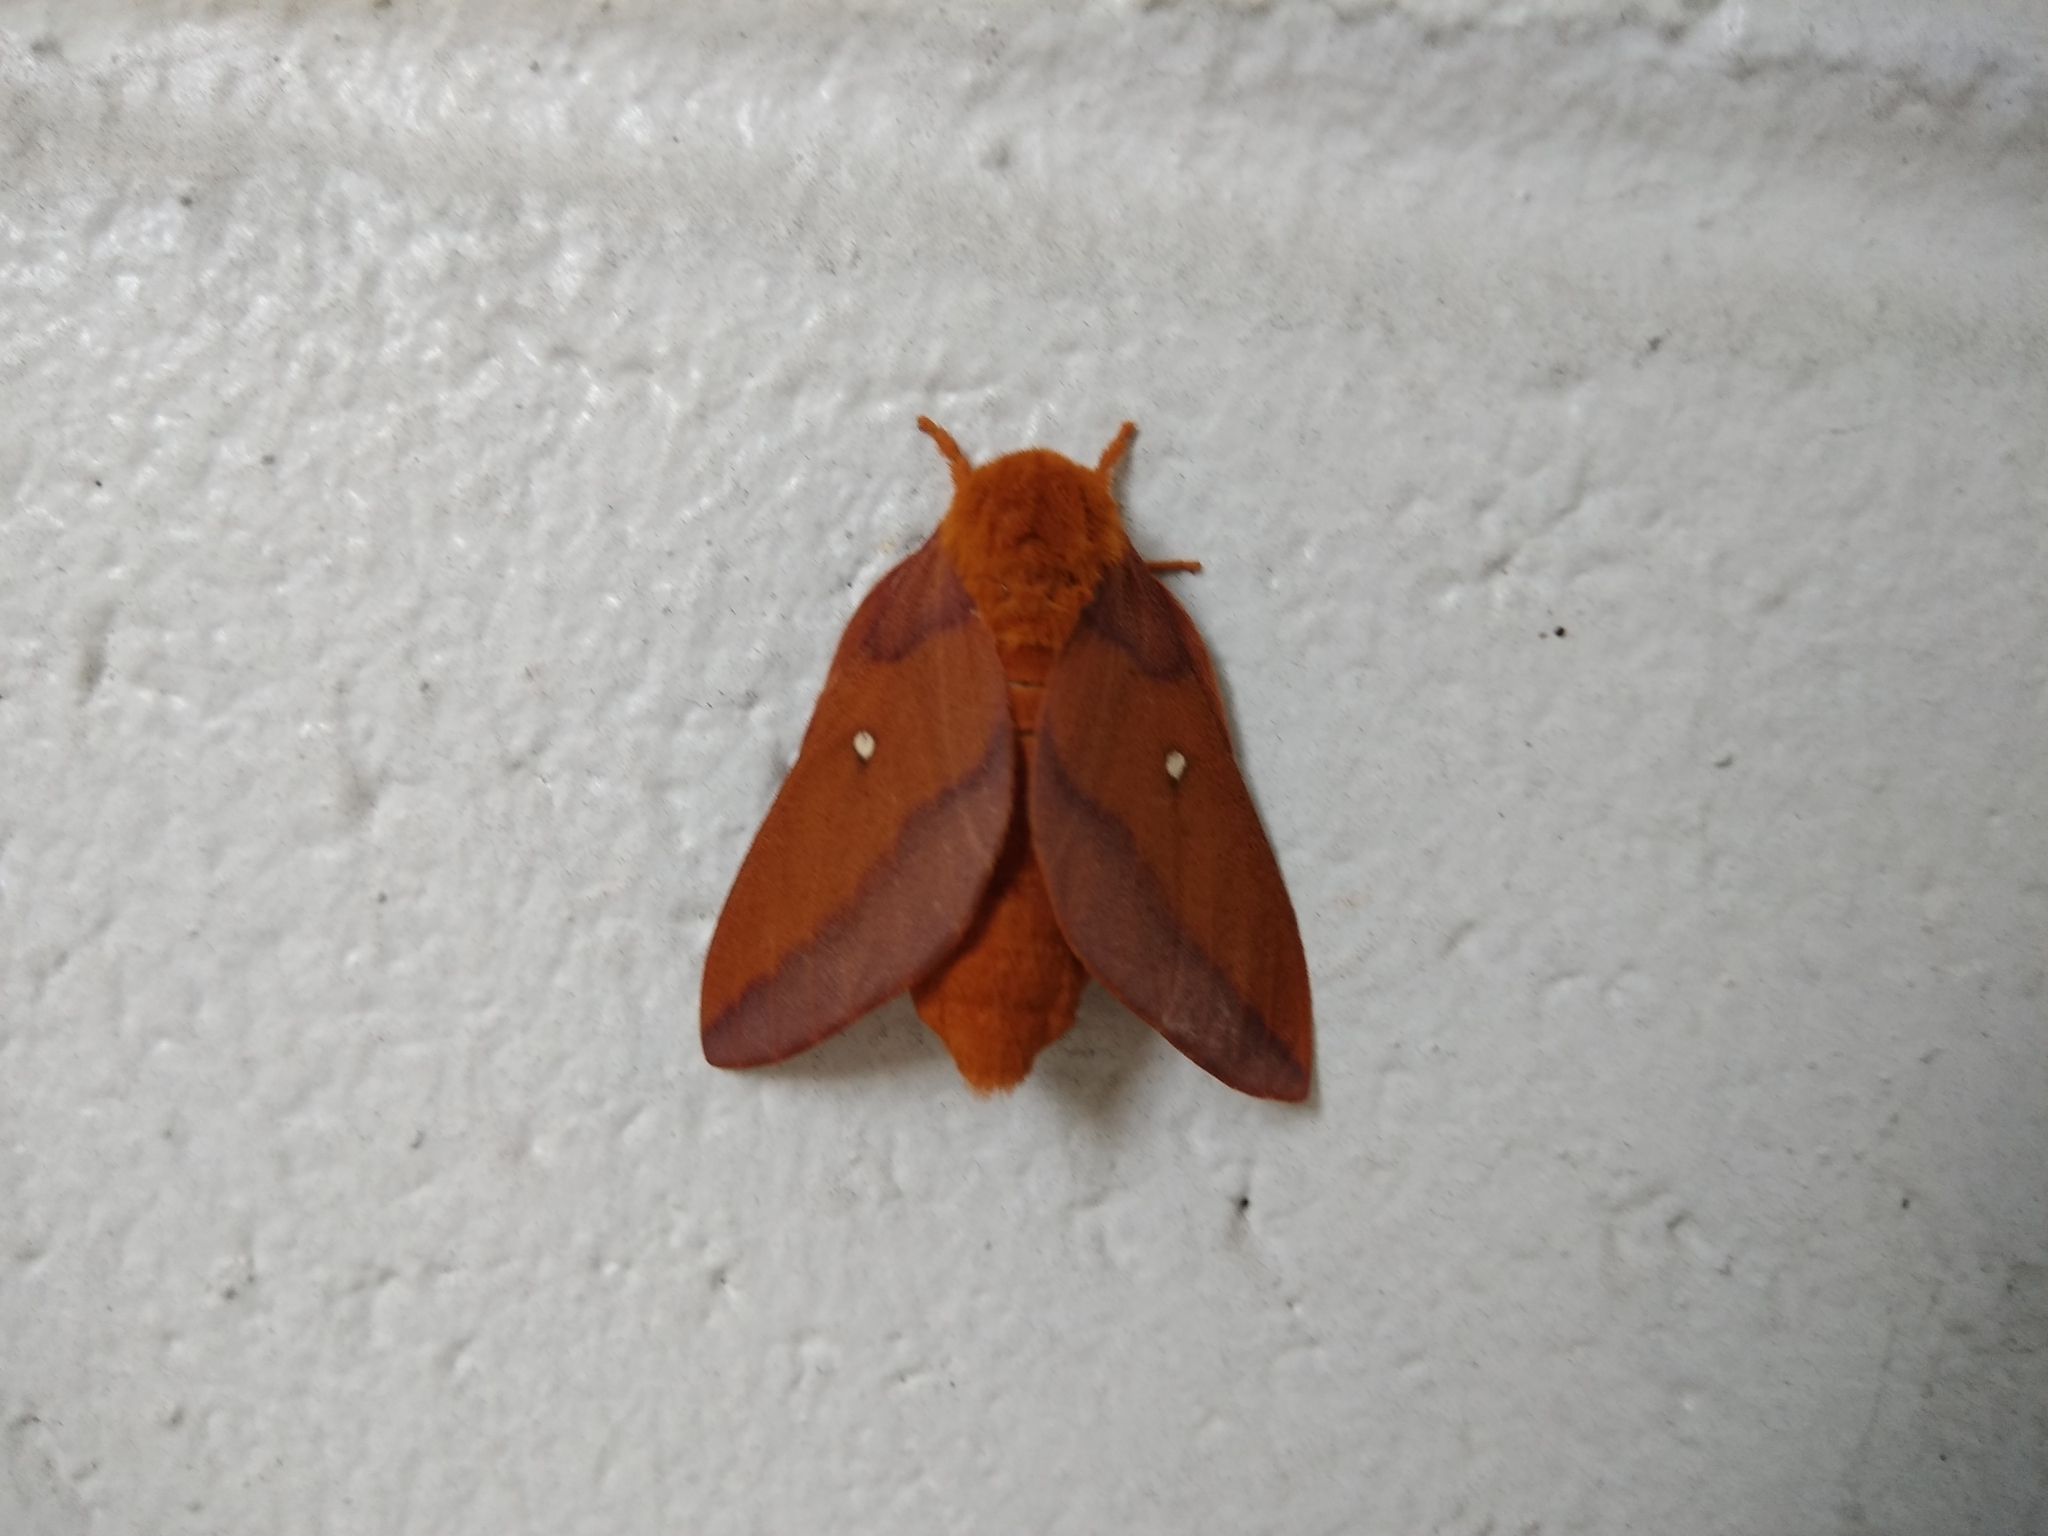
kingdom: Animalia
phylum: Arthropoda
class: Insecta
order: Lepidoptera
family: Saturniidae
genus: Anisota
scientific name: Anisota virginiensis
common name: Pink striped oakworm moth
